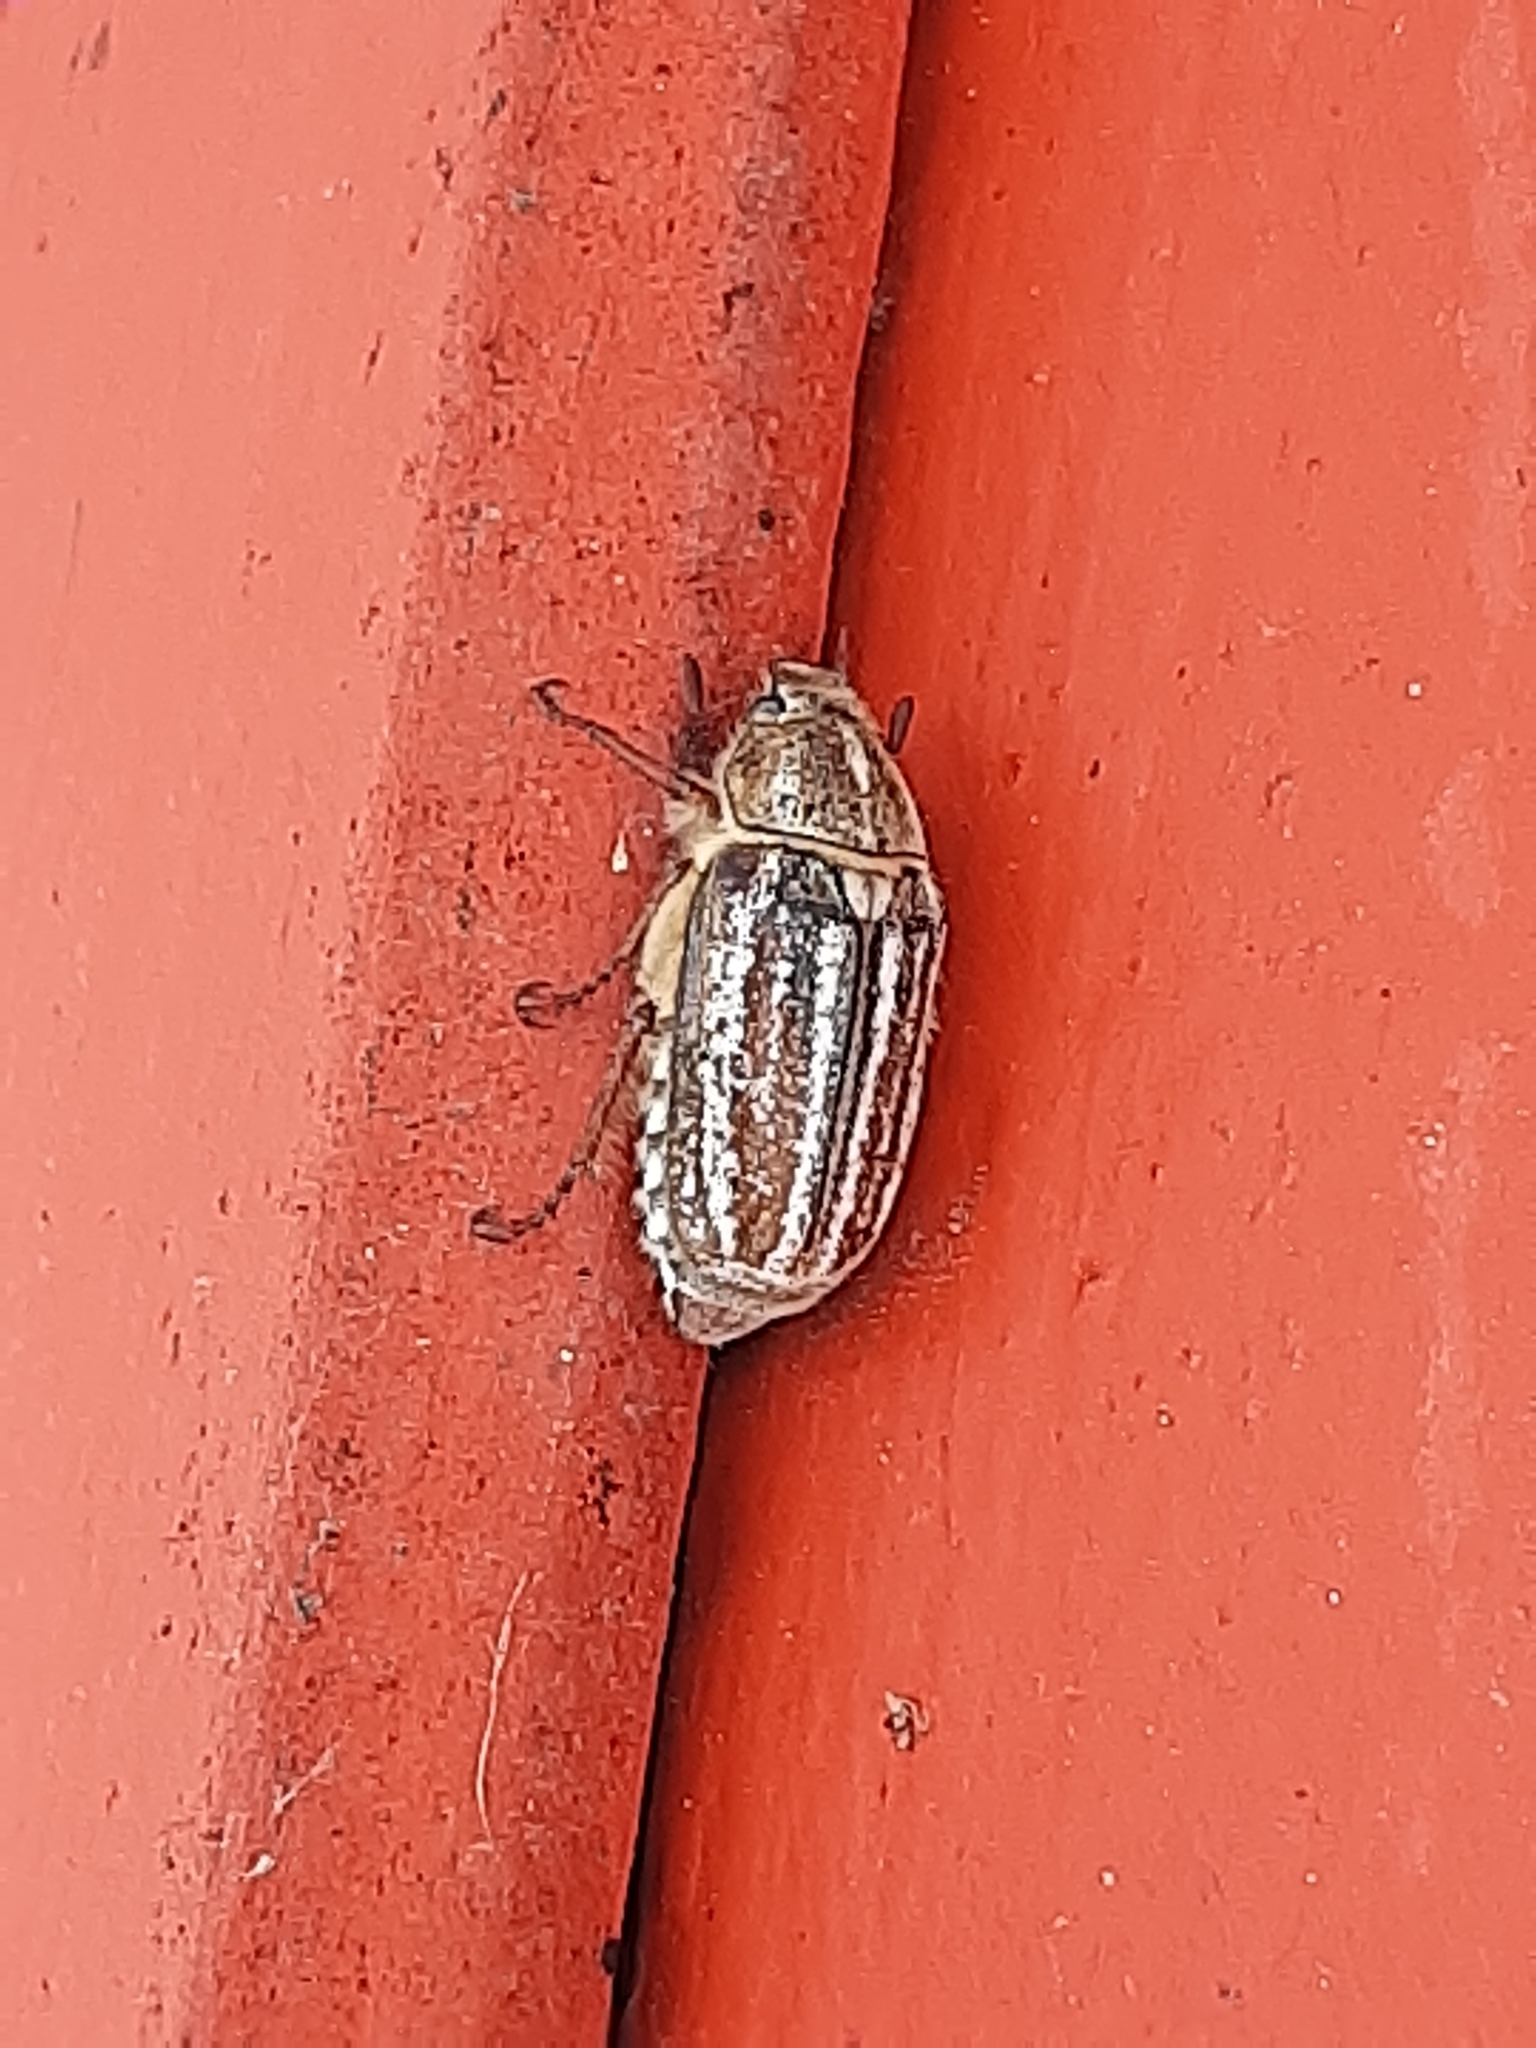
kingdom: Animalia
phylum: Arthropoda
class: Insecta
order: Coleoptera
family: Scarabaeidae
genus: Anoxia
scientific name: Anoxia australis
